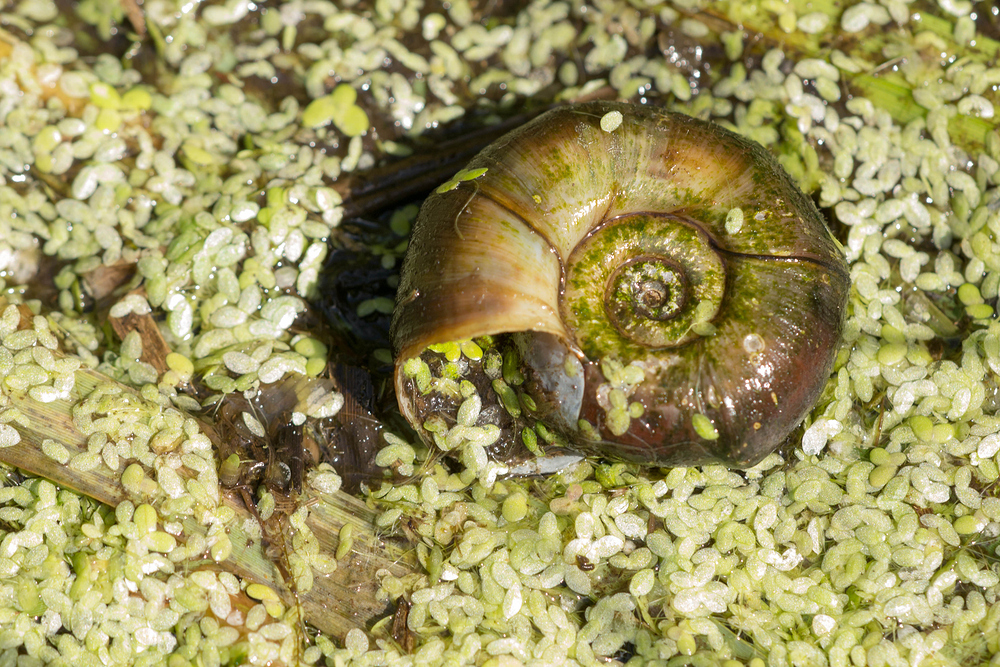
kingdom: Animalia
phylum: Mollusca
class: Gastropoda
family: Planorbidae
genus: Planorbarius
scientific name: Planorbarius corneus
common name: Great ramshorn
